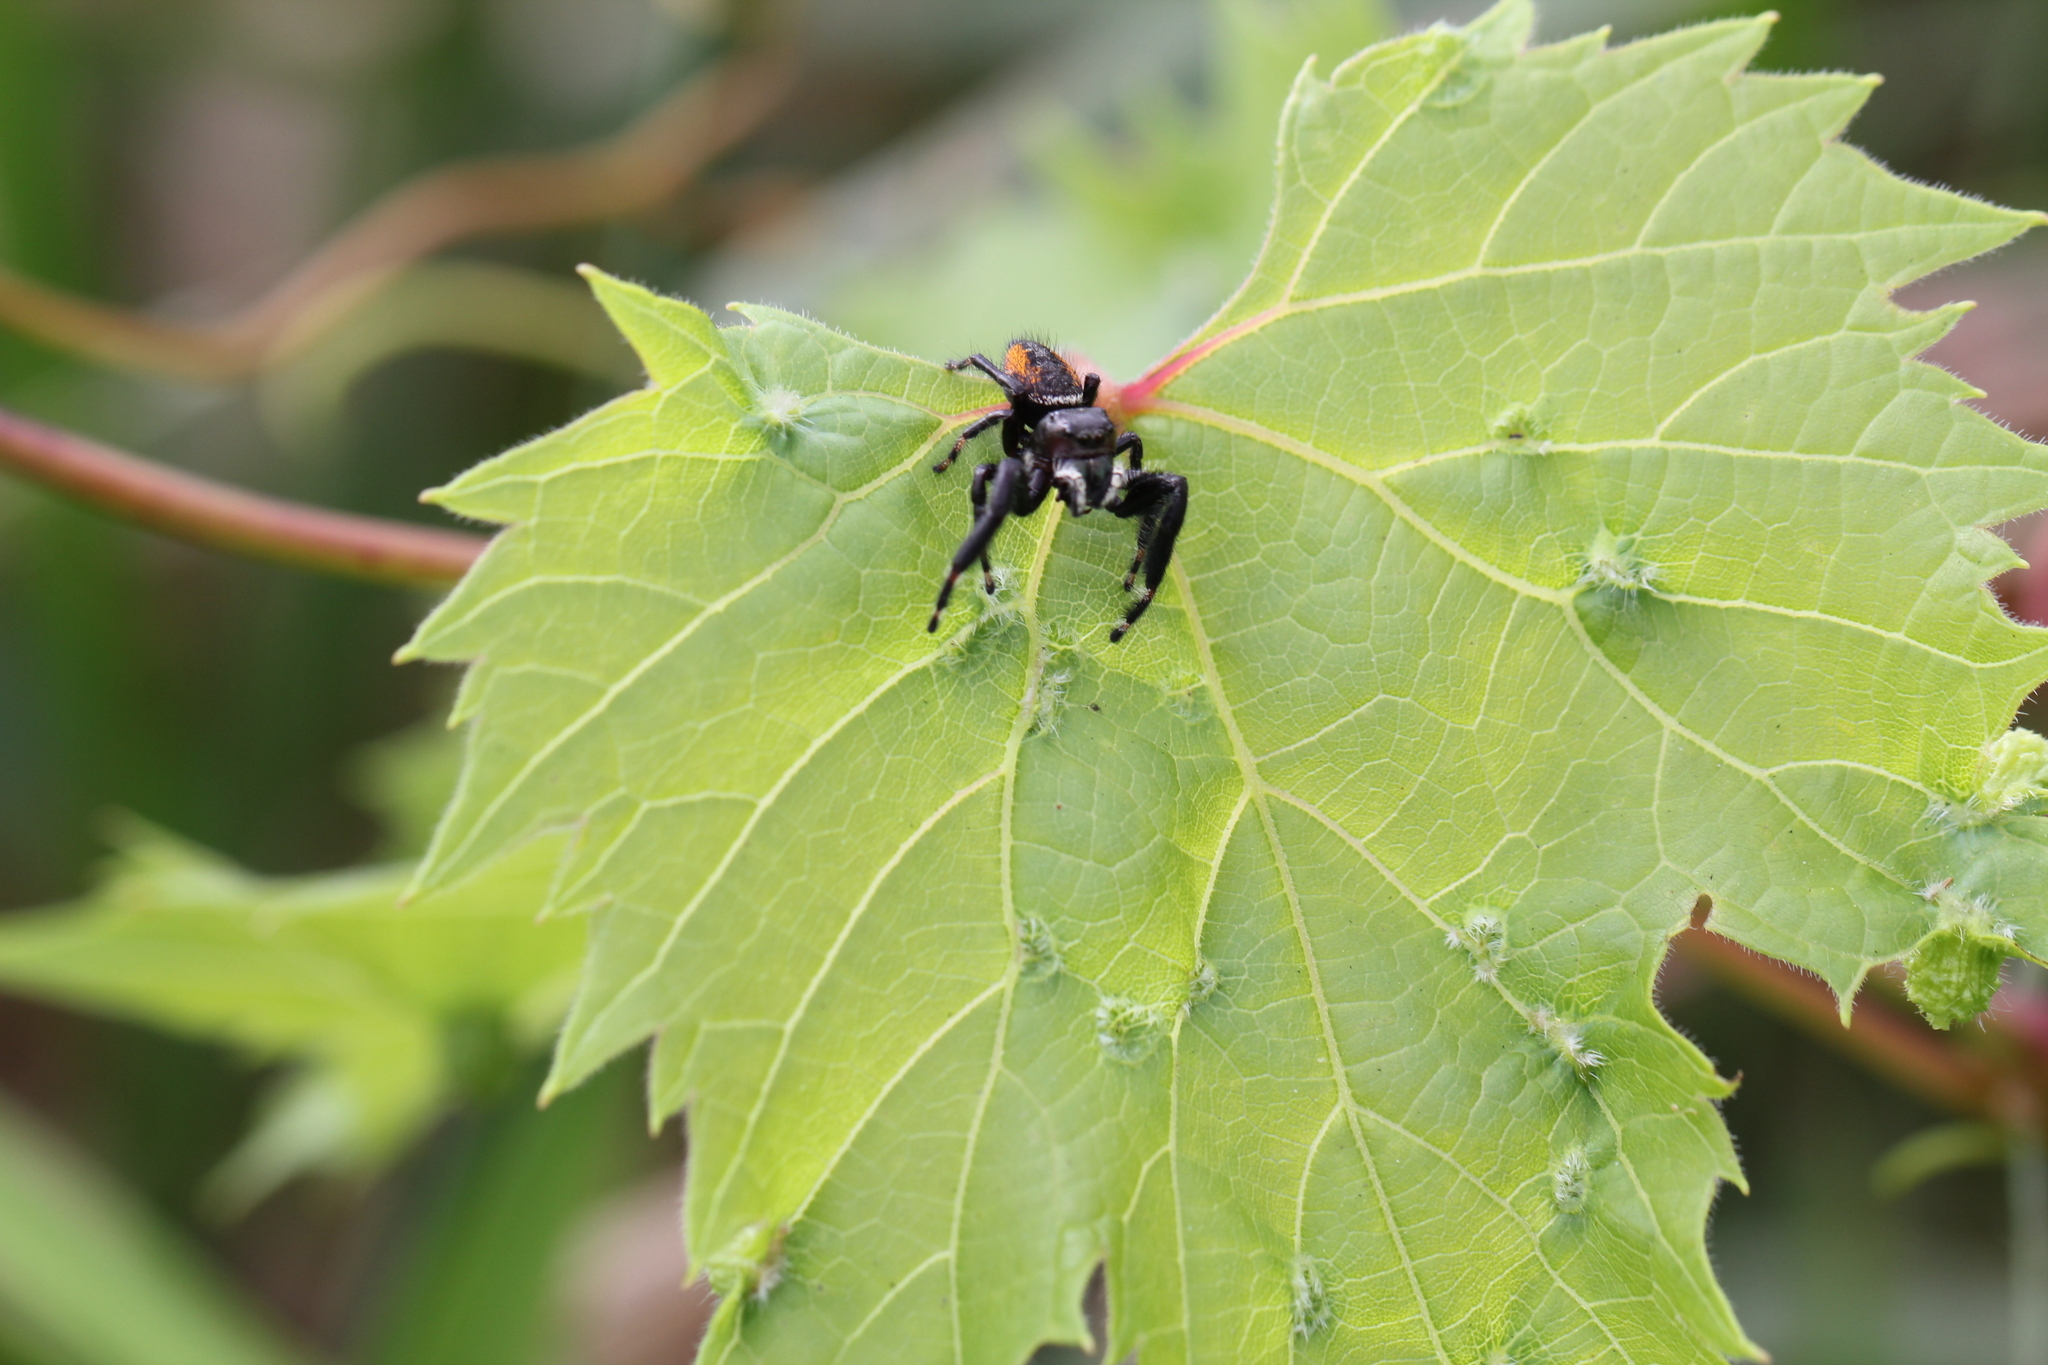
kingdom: Animalia
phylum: Arthropoda
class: Arachnida
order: Araneae
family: Salticidae
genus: Phidippus
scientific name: Phidippus clarus
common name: Brilliant jumping spider
